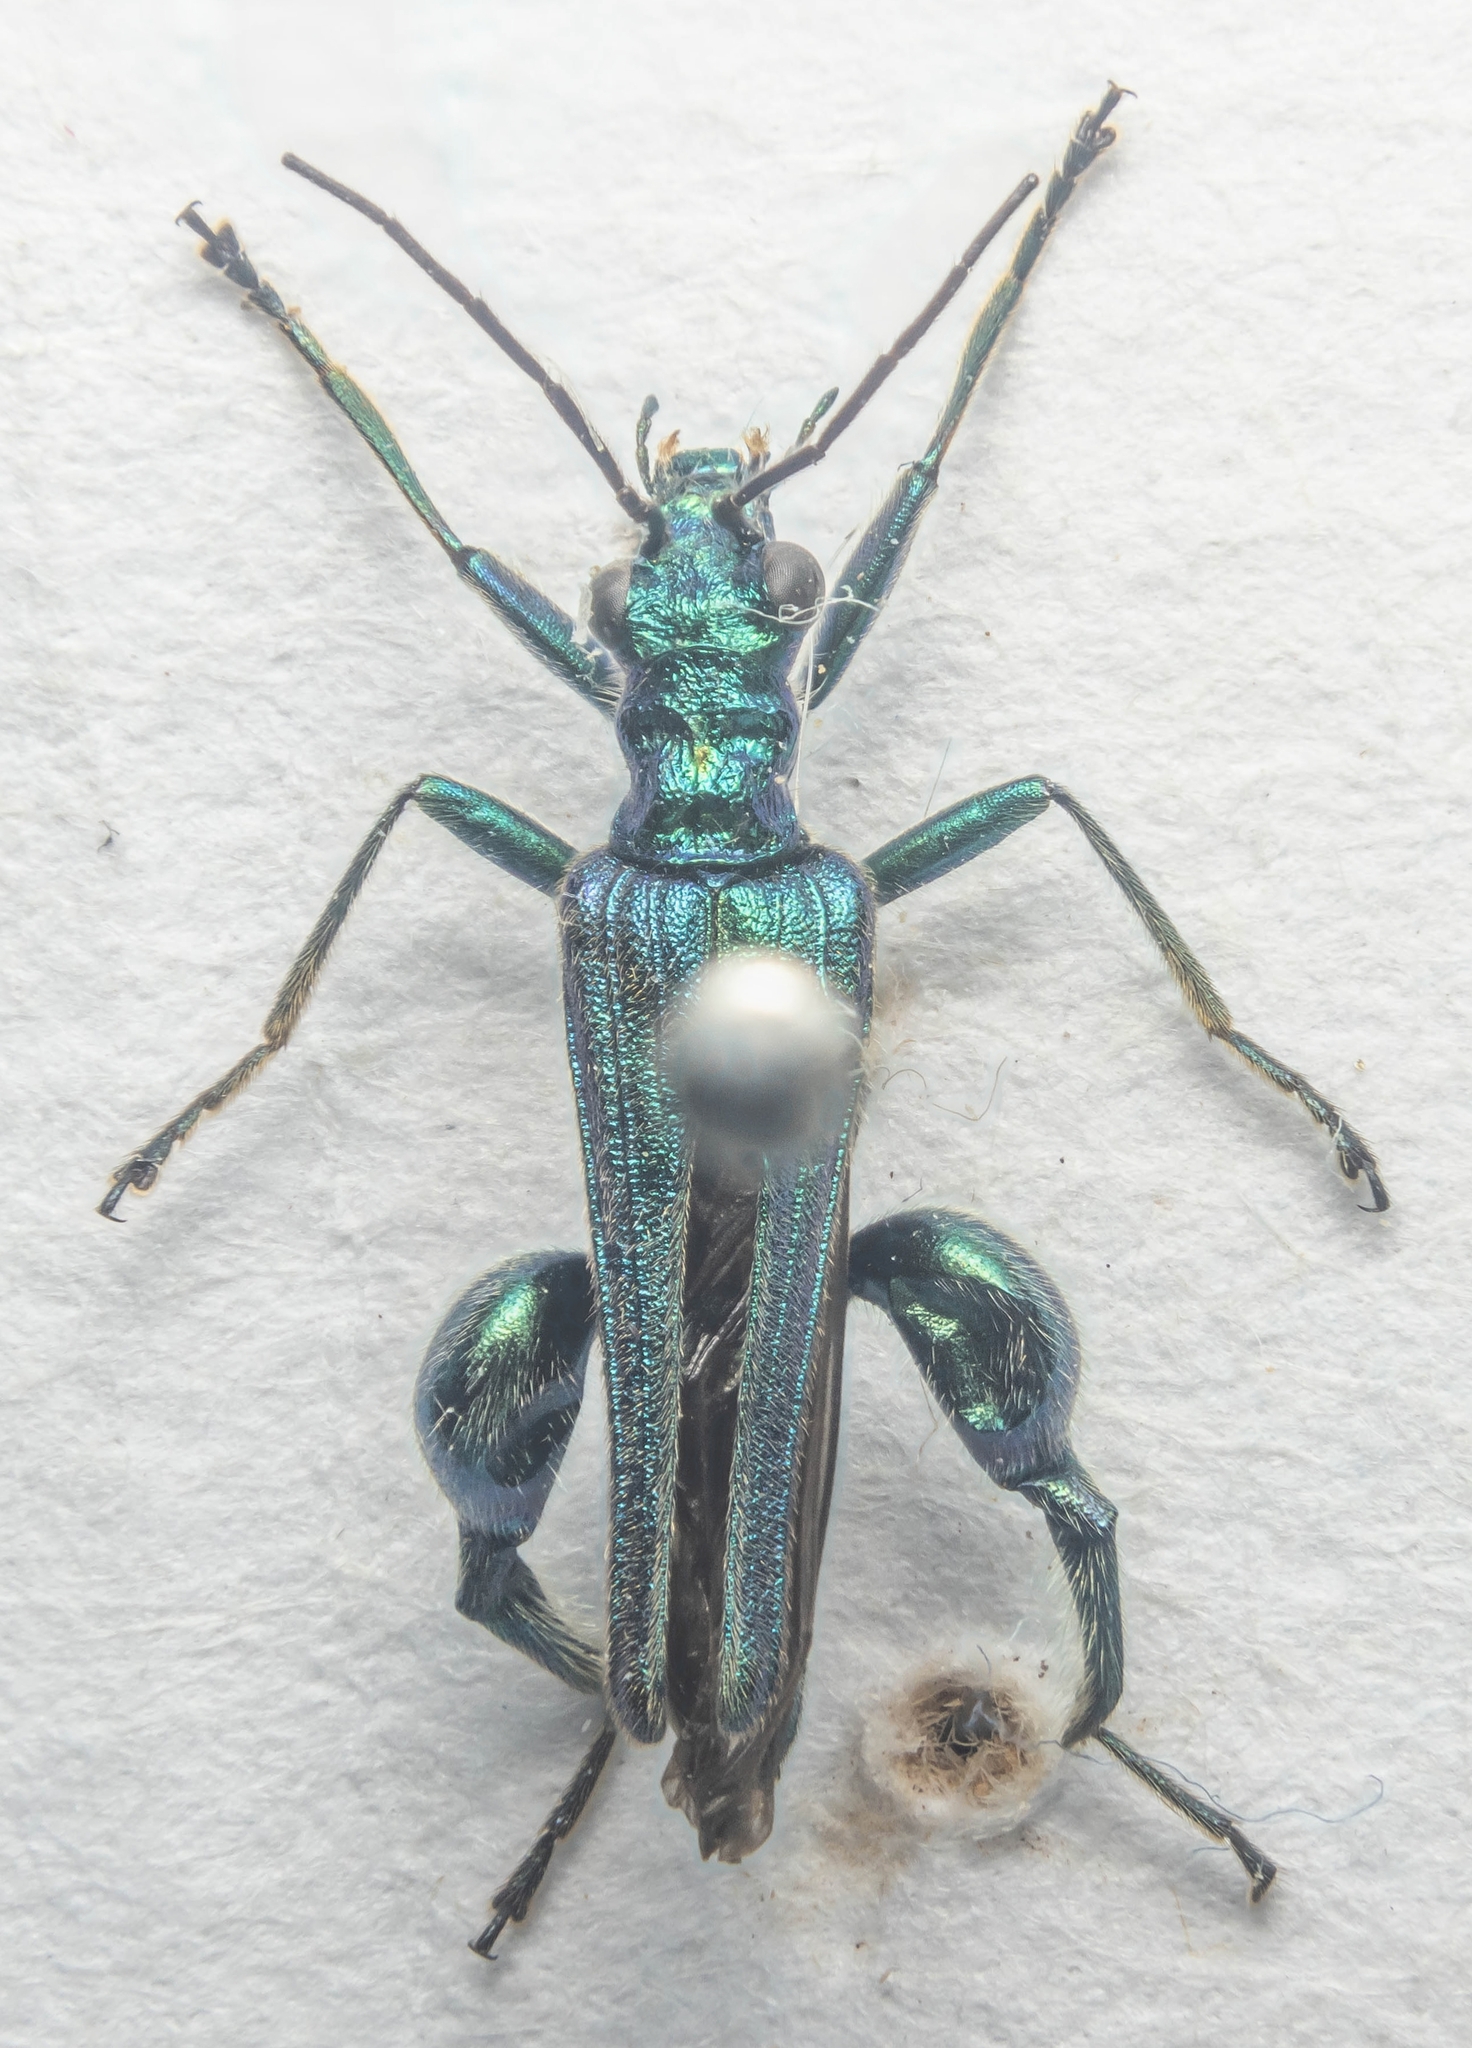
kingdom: Animalia
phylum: Arthropoda
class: Insecta
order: Coleoptera
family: Oedemeridae
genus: Oedemera
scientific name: Oedemera nobilis
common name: Swollen-thighed beetle
